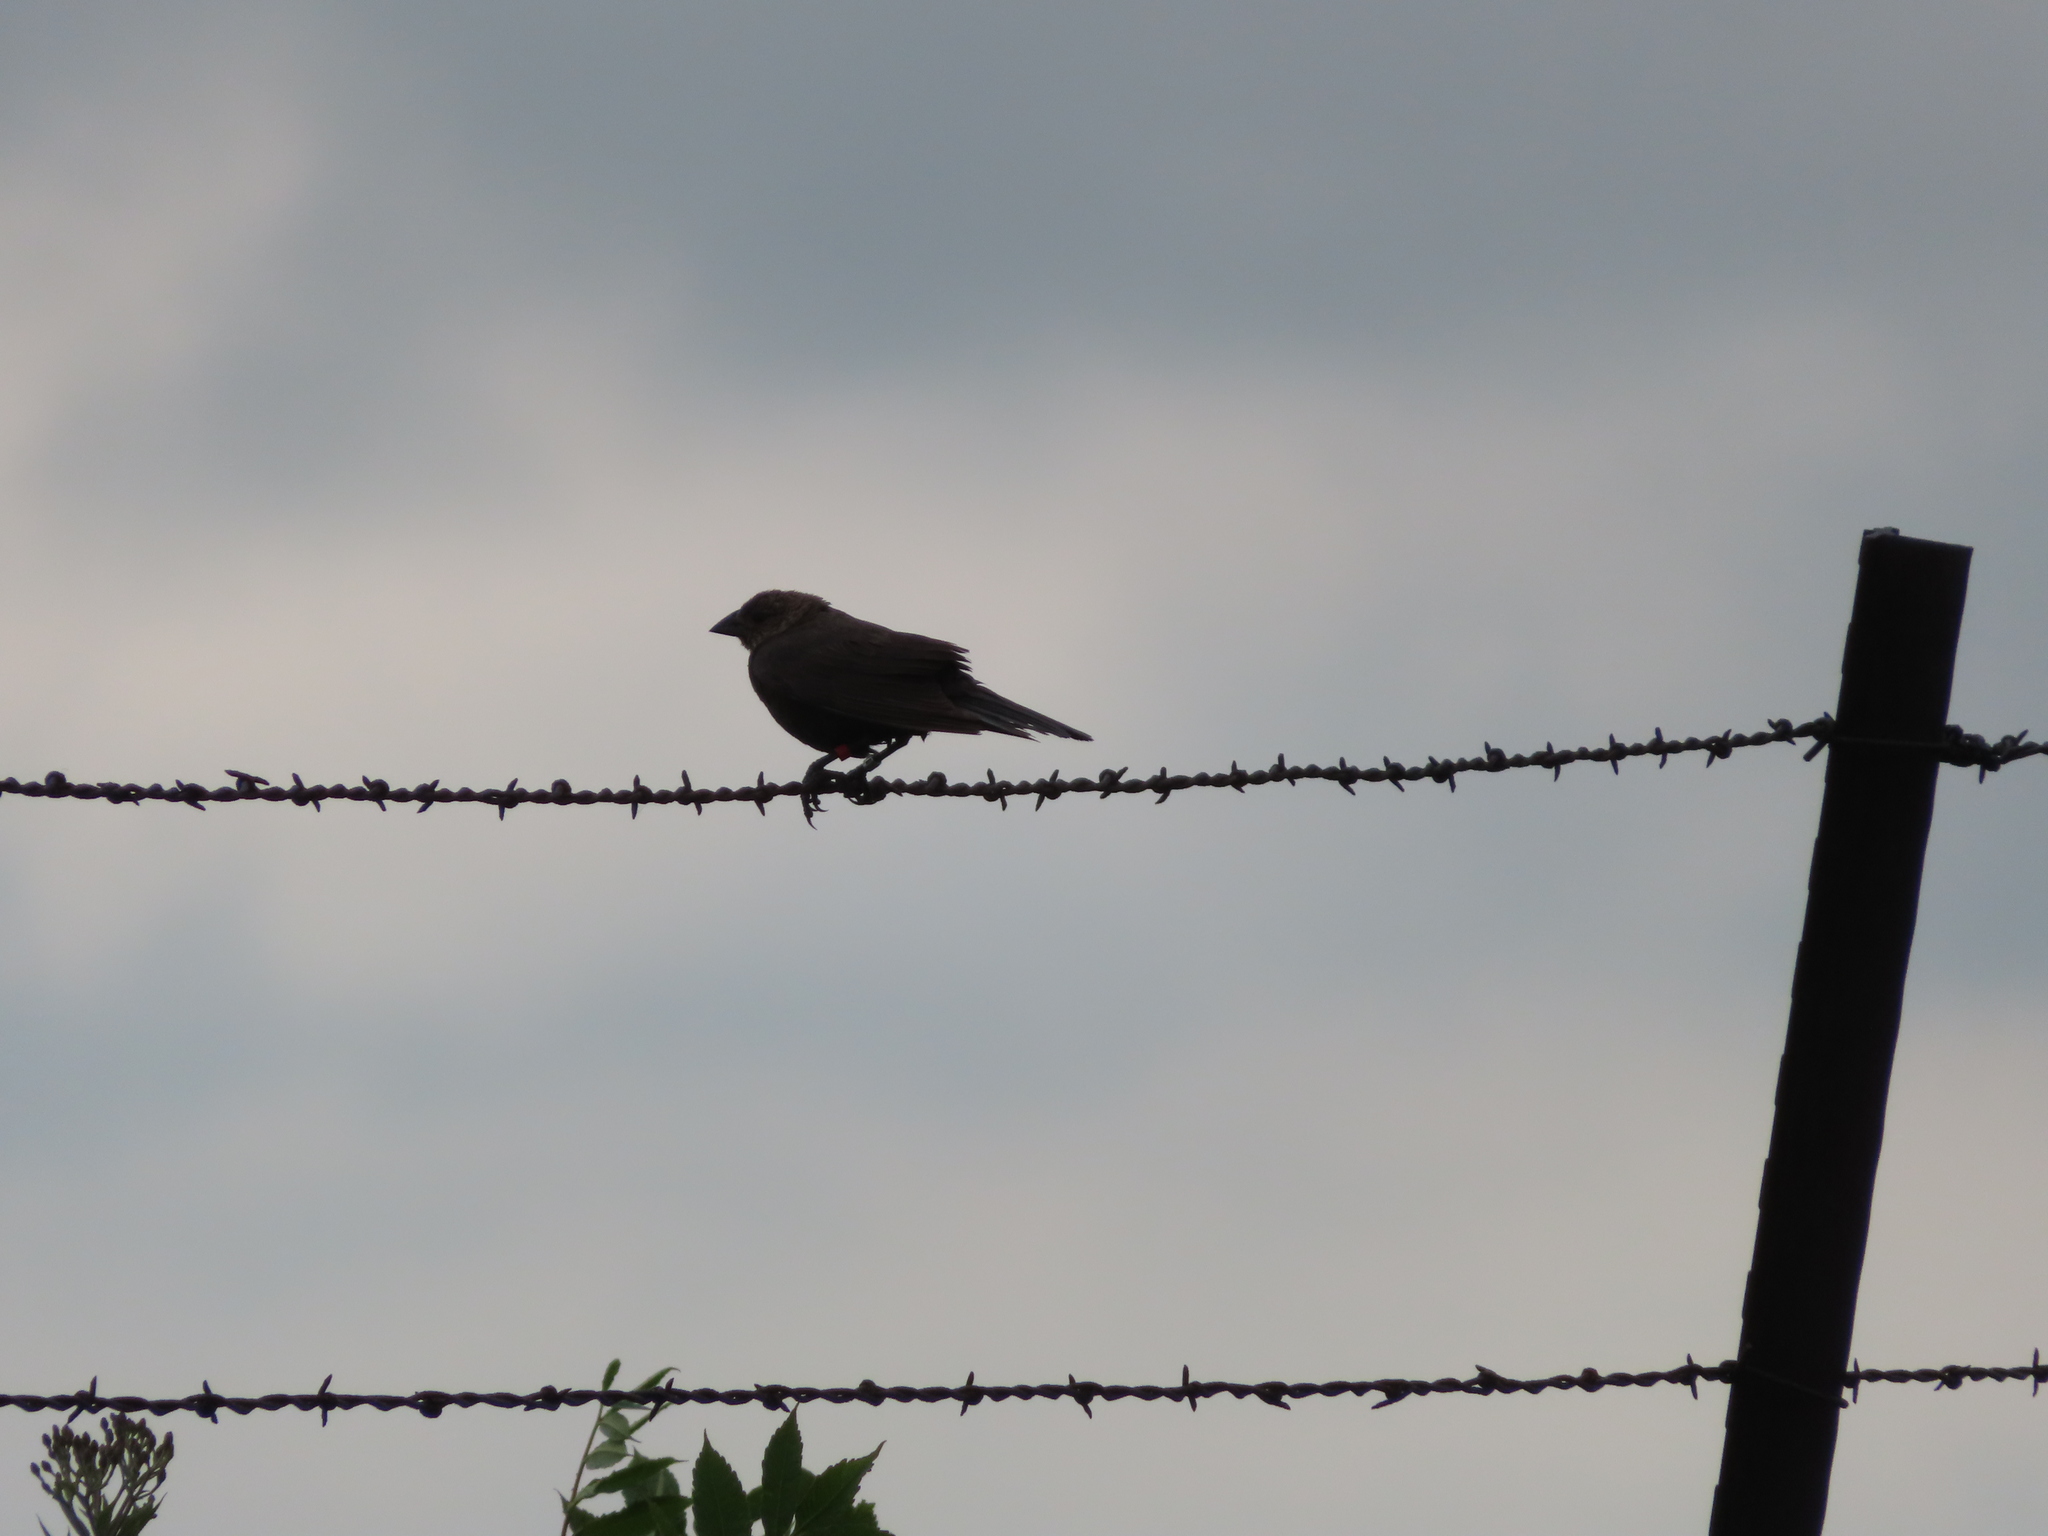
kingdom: Animalia
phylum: Chordata
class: Aves
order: Passeriformes
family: Icteridae
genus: Molothrus
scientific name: Molothrus ater
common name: Brown-headed cowbird
